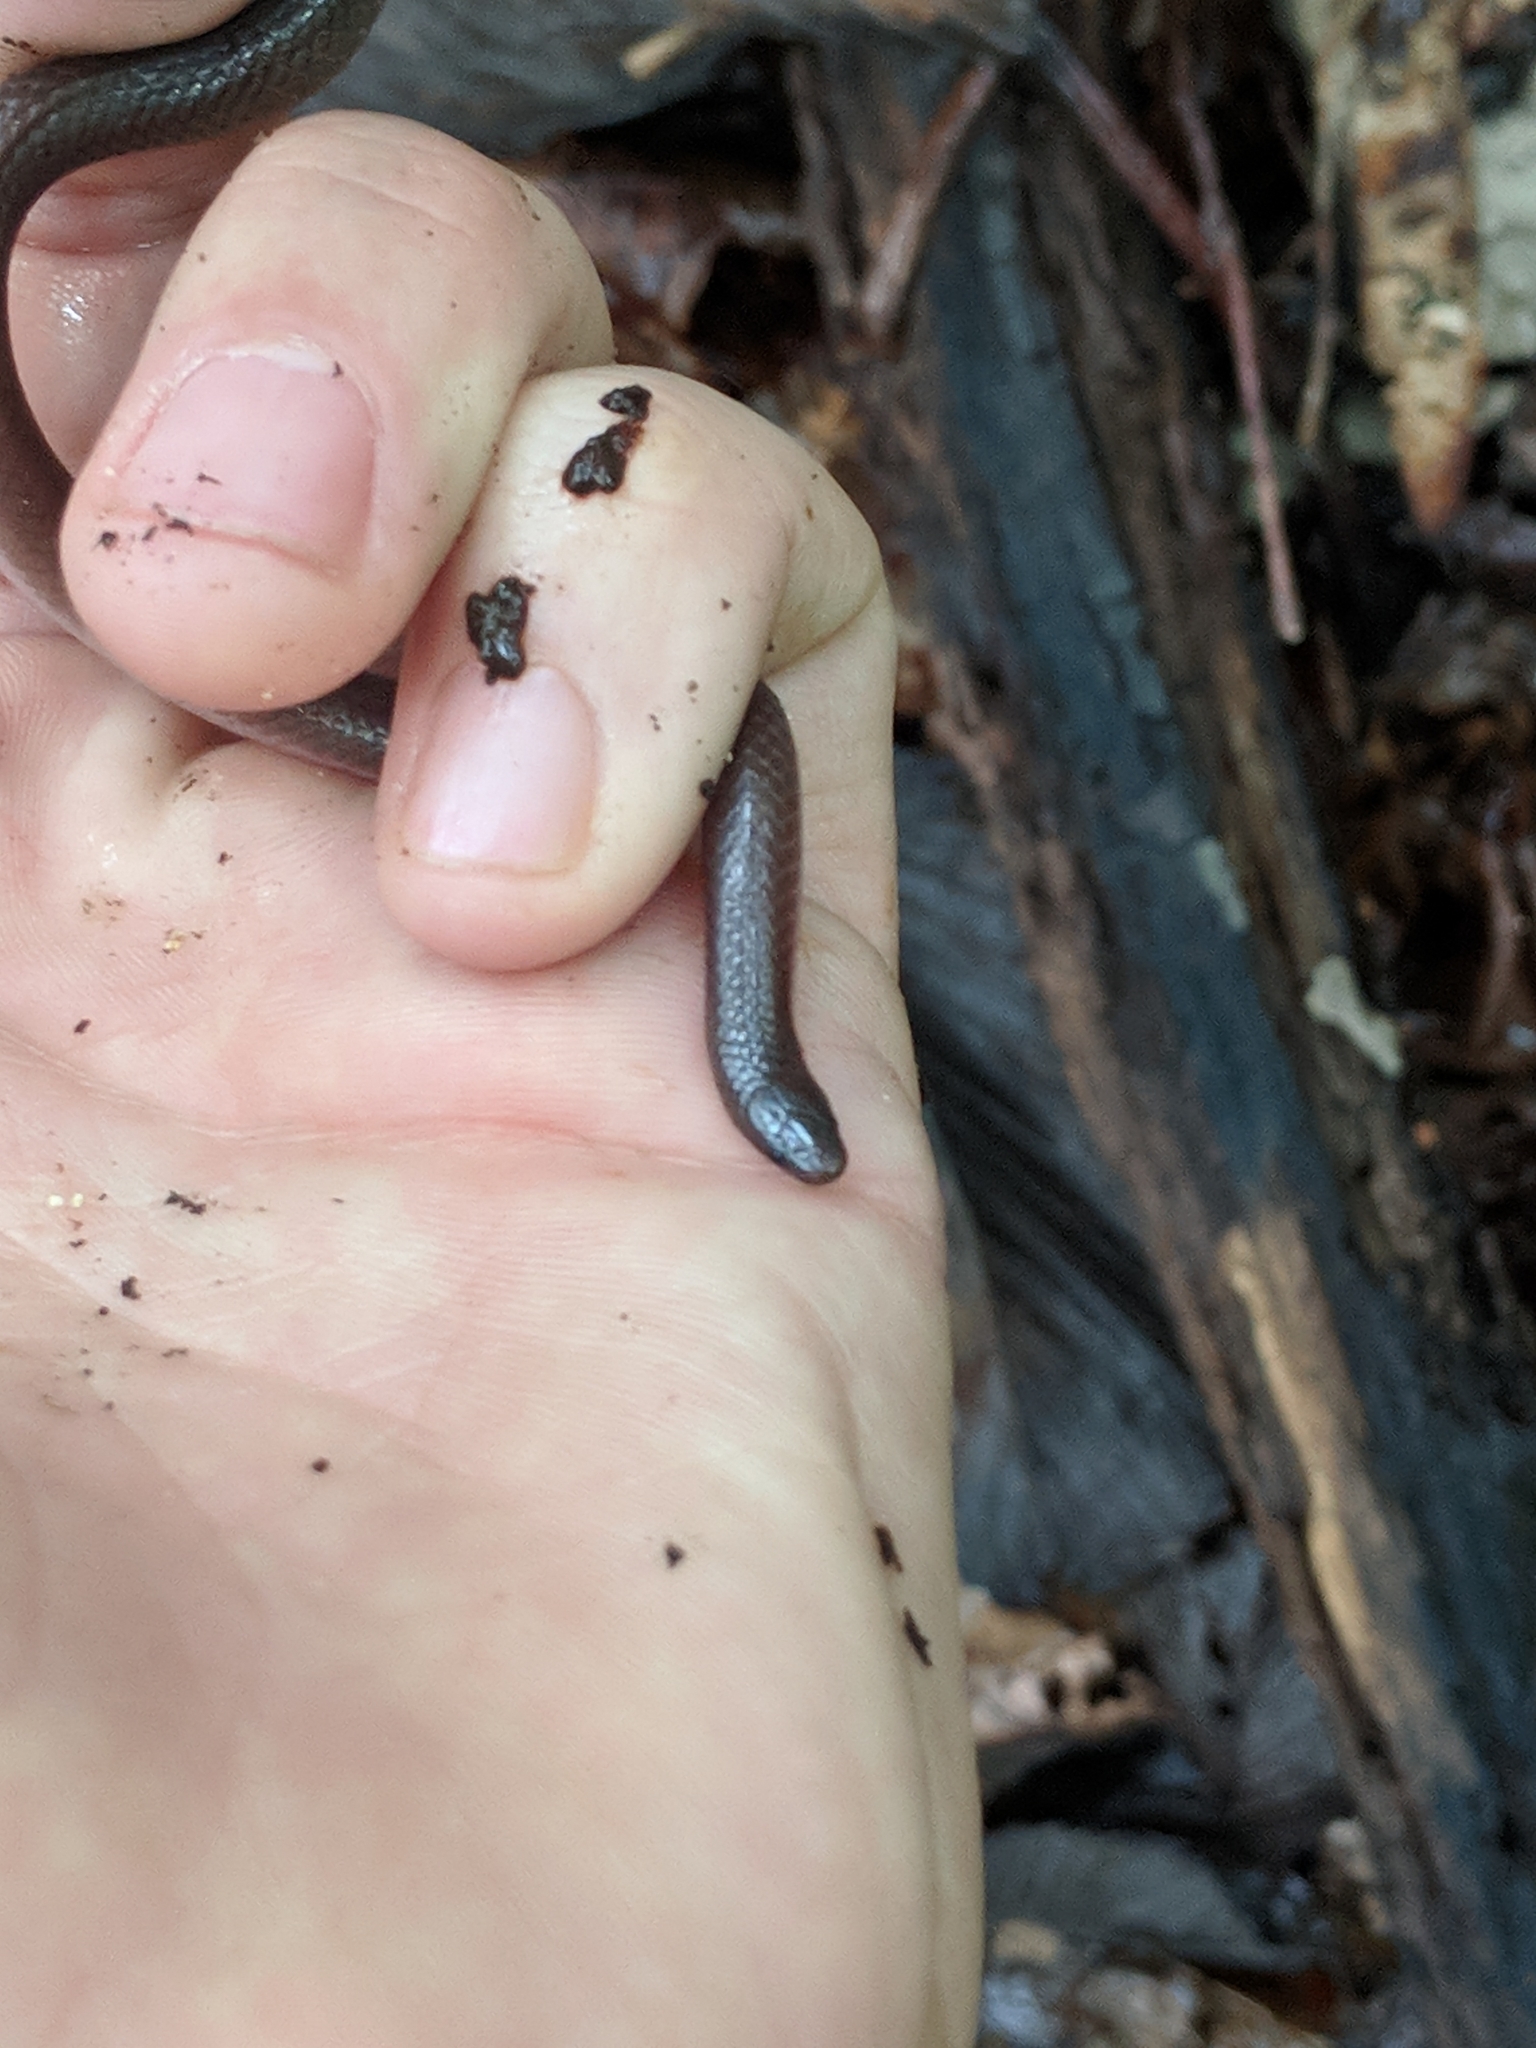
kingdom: Animalia
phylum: Chordata
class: Squamata
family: Colubridae
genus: Carphophis
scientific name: Carphophis amoenus
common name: Eastern worm snake
